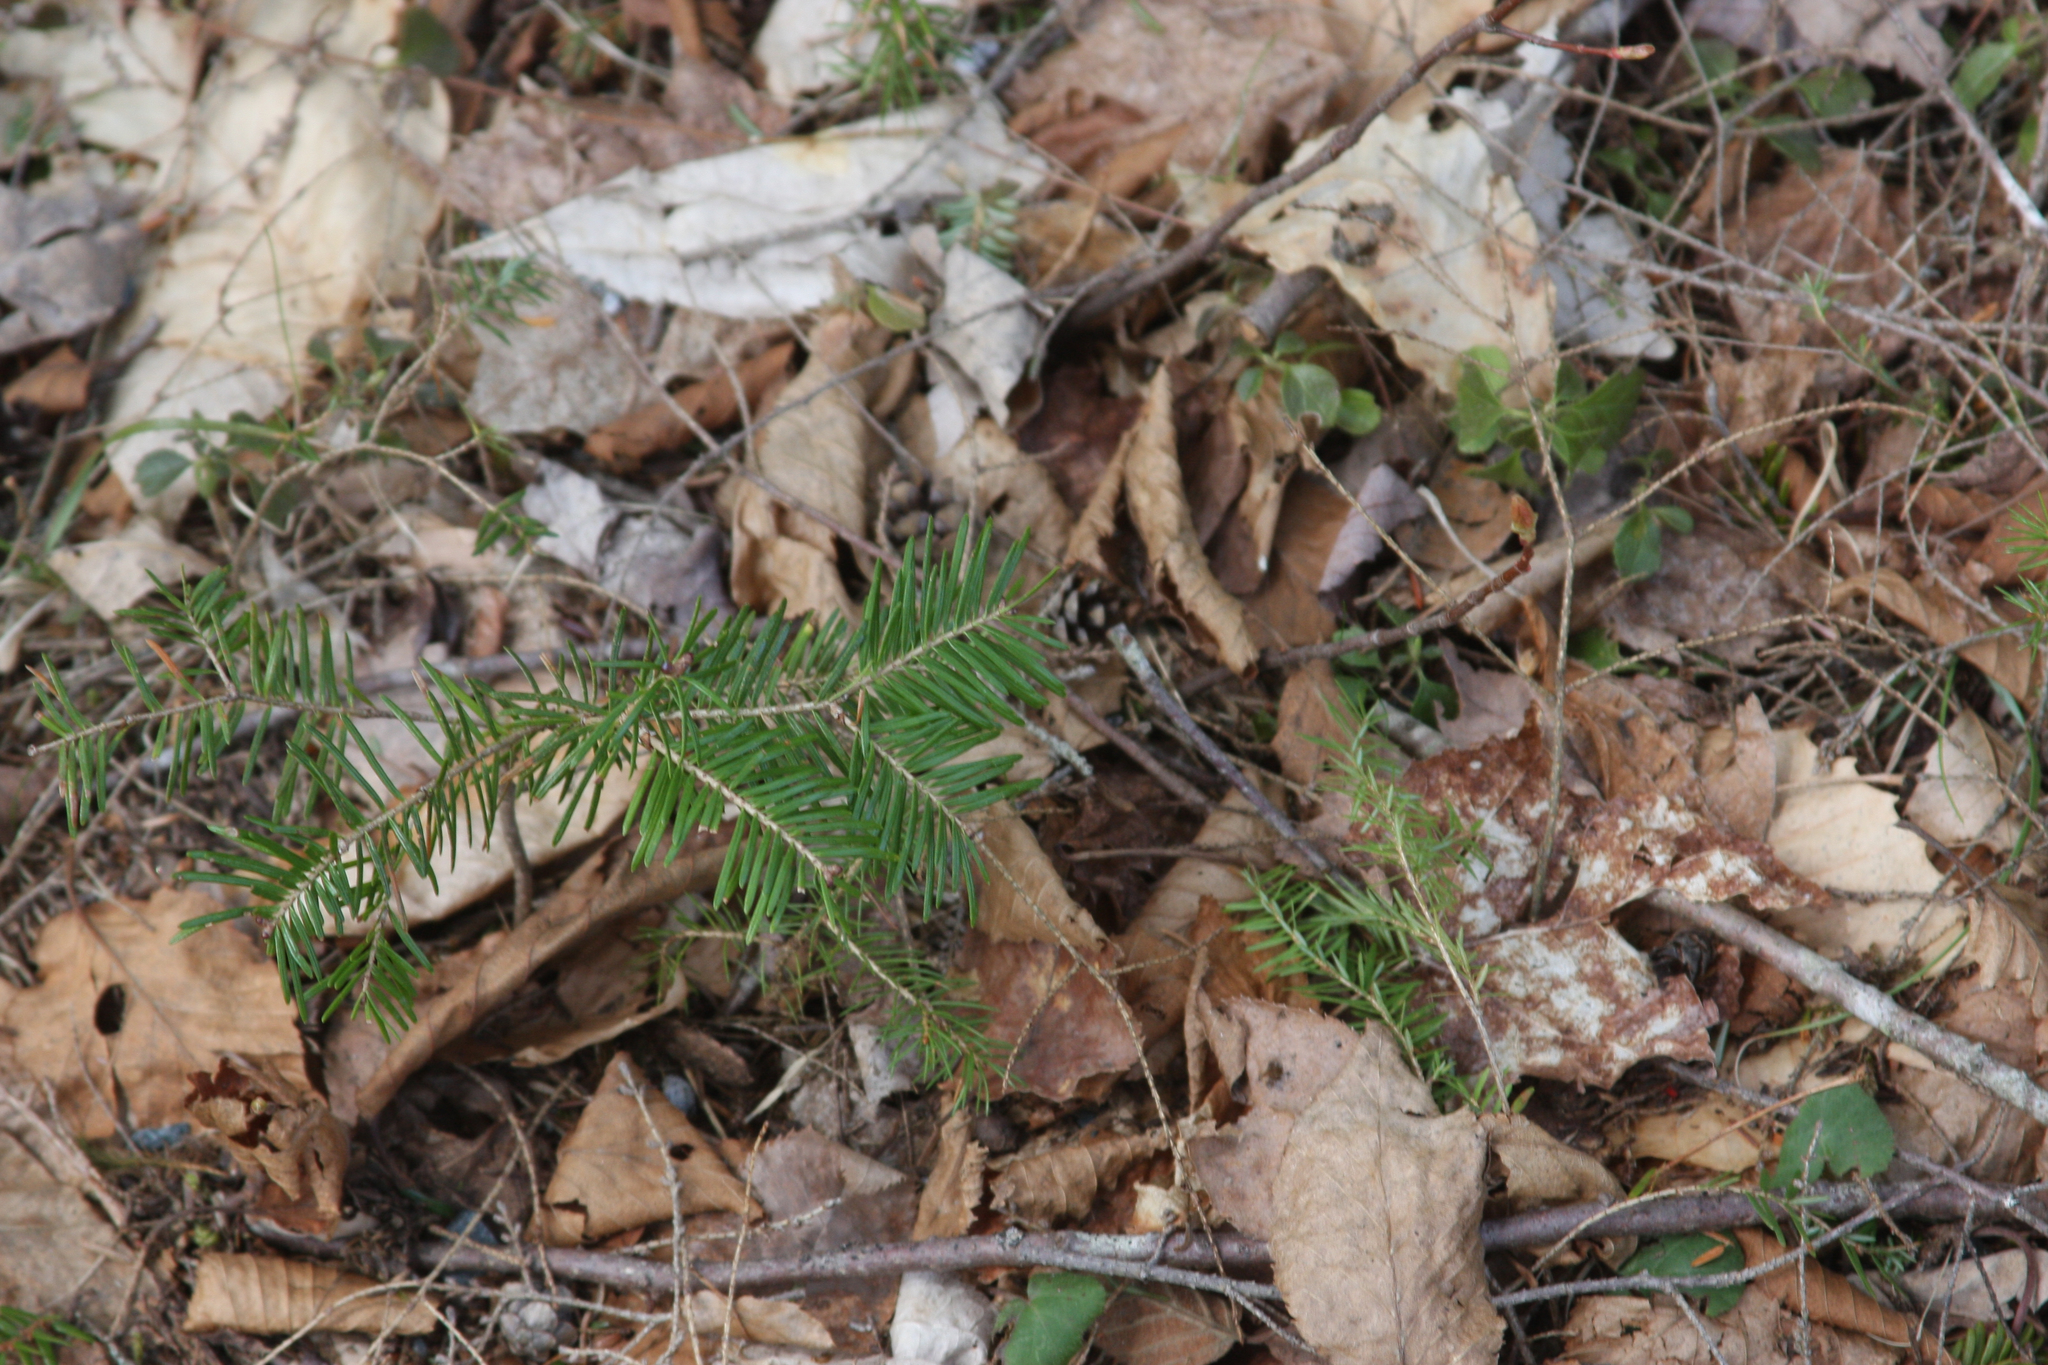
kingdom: Plantae
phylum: Tracheophyta
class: Pinopsida
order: Pinales
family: Pinaceae
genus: Abies
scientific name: Abies balsamea
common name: Balsam fir
